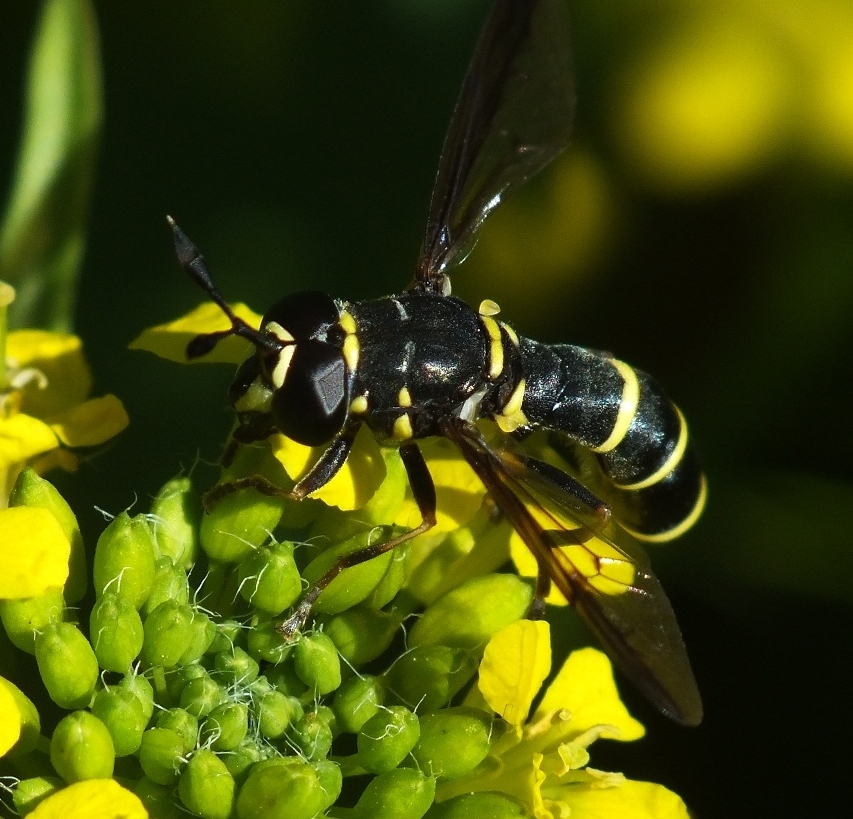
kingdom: Animalia
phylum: Arthropoda
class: Insecta
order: Diptera
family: Syrphidae
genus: Ceriana
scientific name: Ceriana conopsoides
